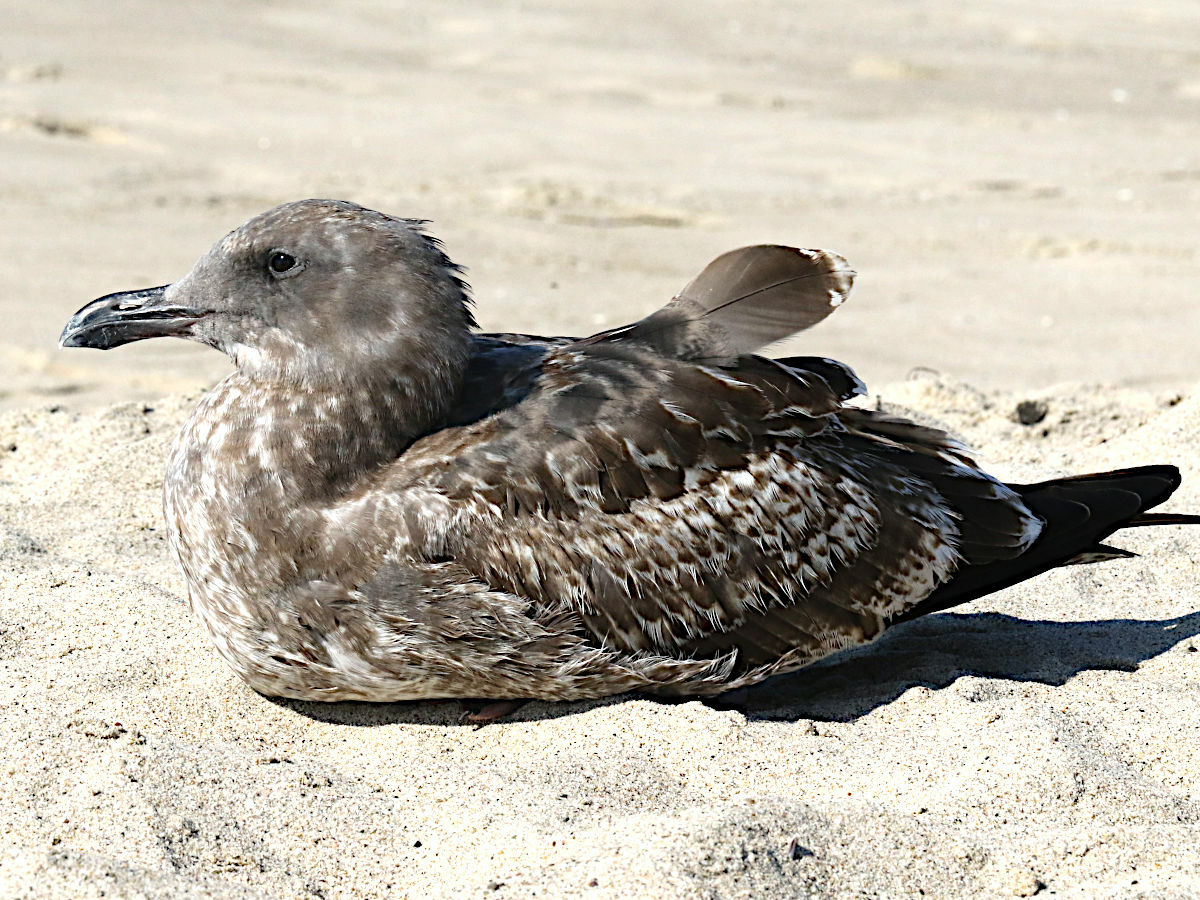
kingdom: Animalia
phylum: Chordata
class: Aves
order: Charadriiformes
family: Laridae
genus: Larus
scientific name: Larus occidentalis
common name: Western gull
